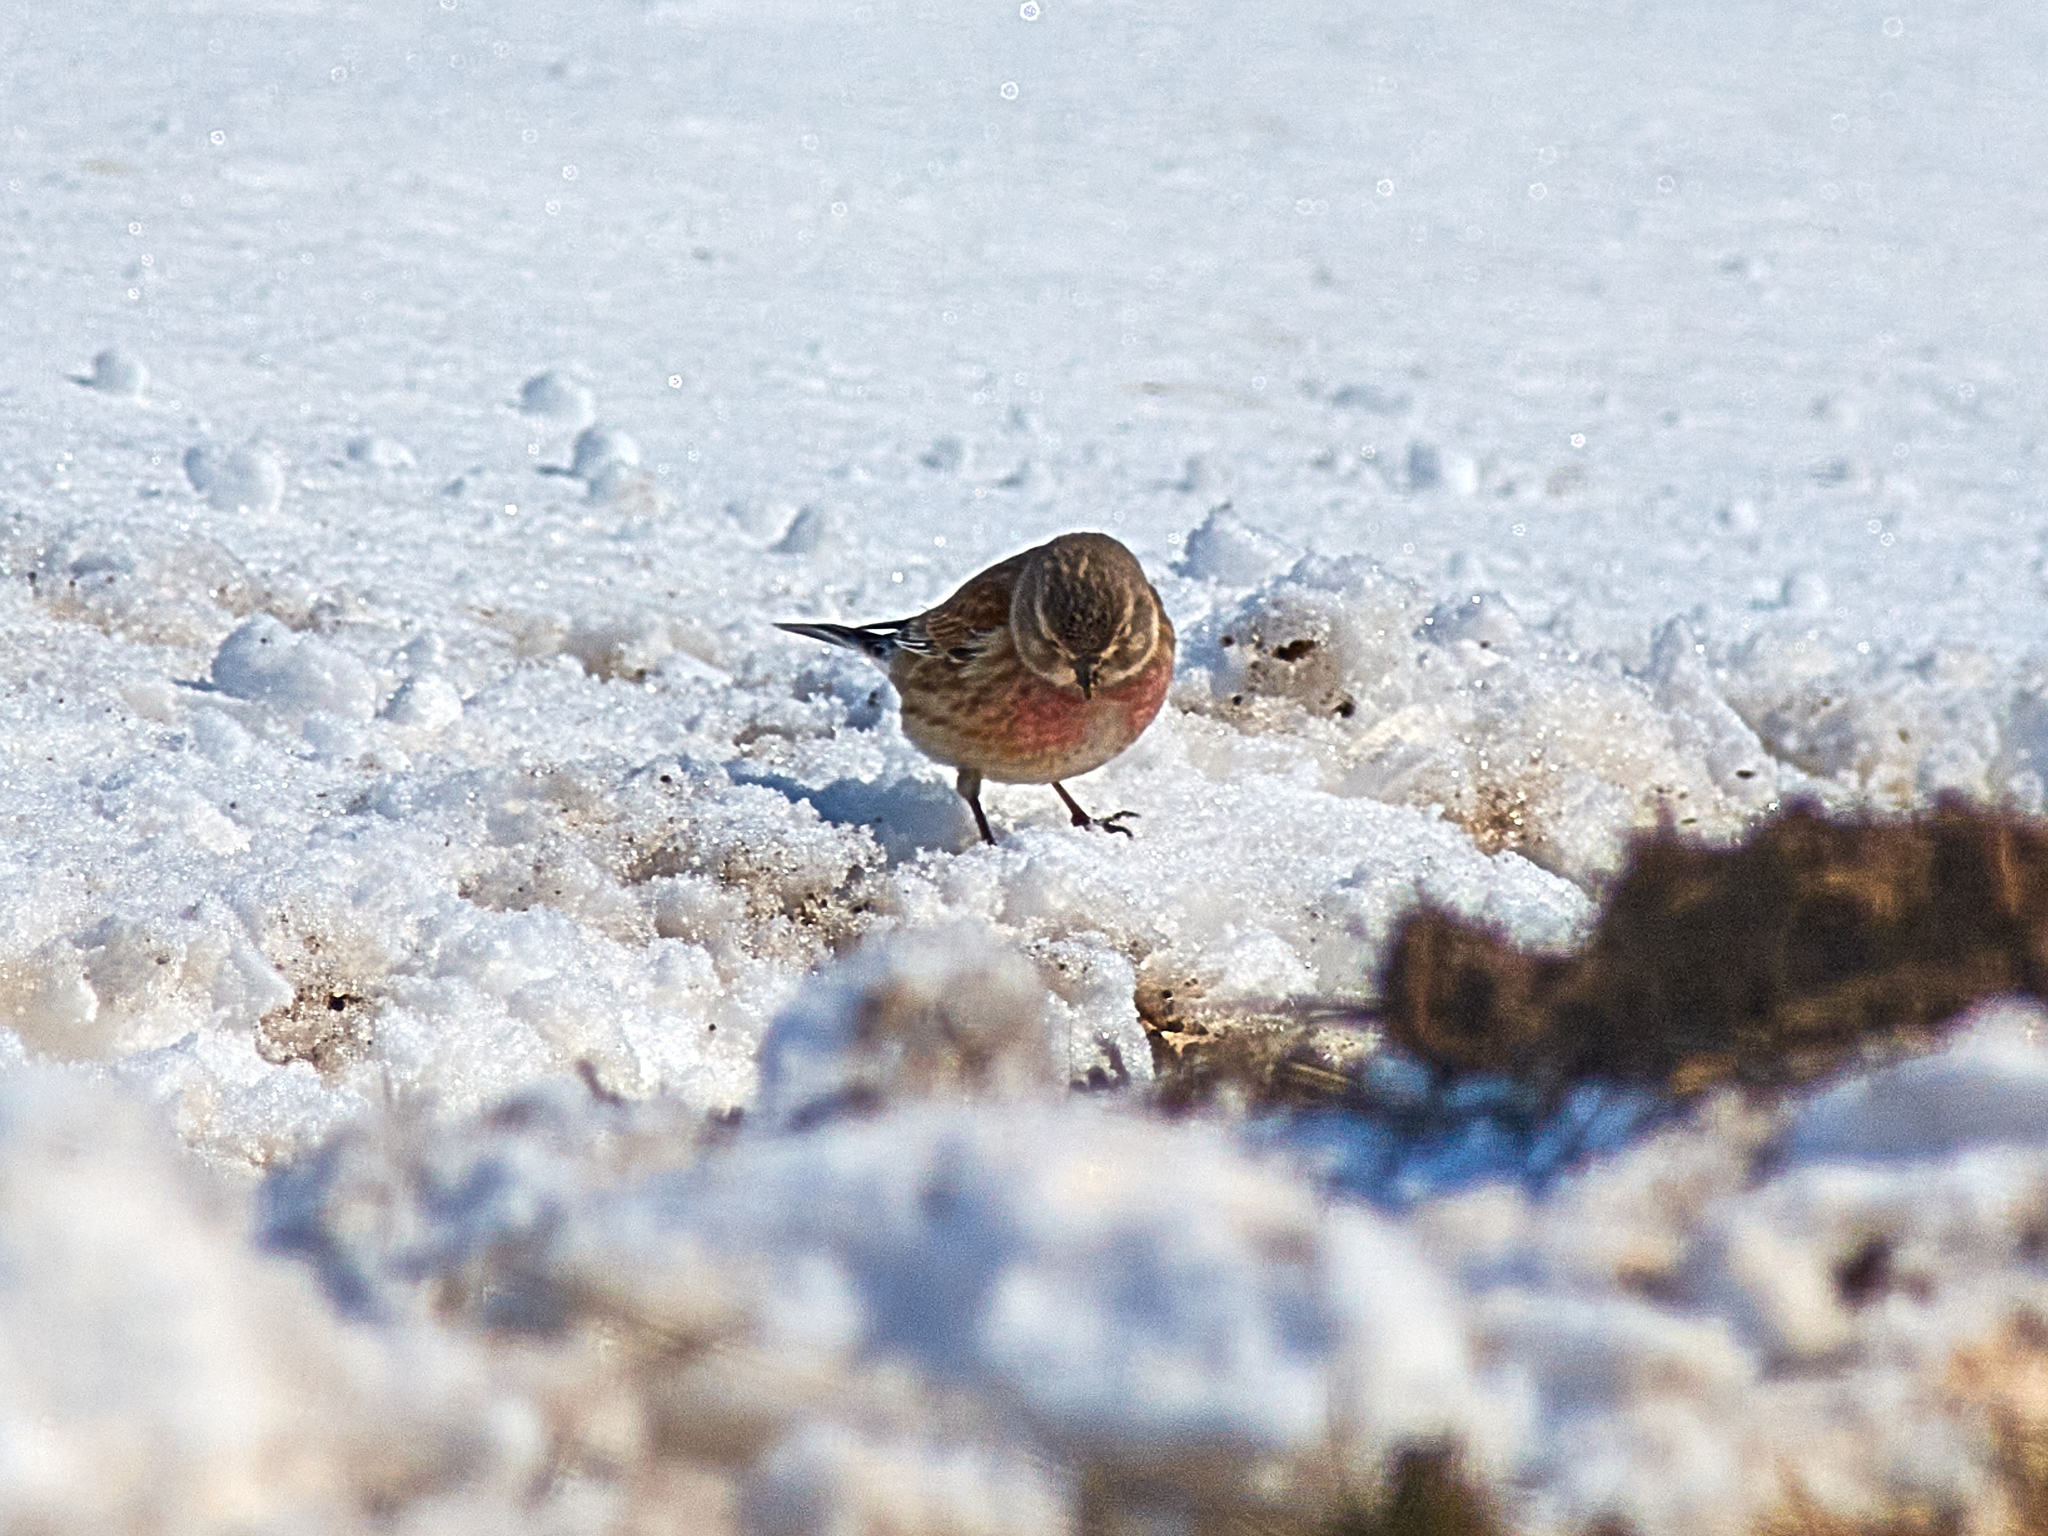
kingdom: Animalia
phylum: Chordata
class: Aves
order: Passeriformes
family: Fringillidae
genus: Linaria
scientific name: Linaria cannabina
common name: Common linnet
